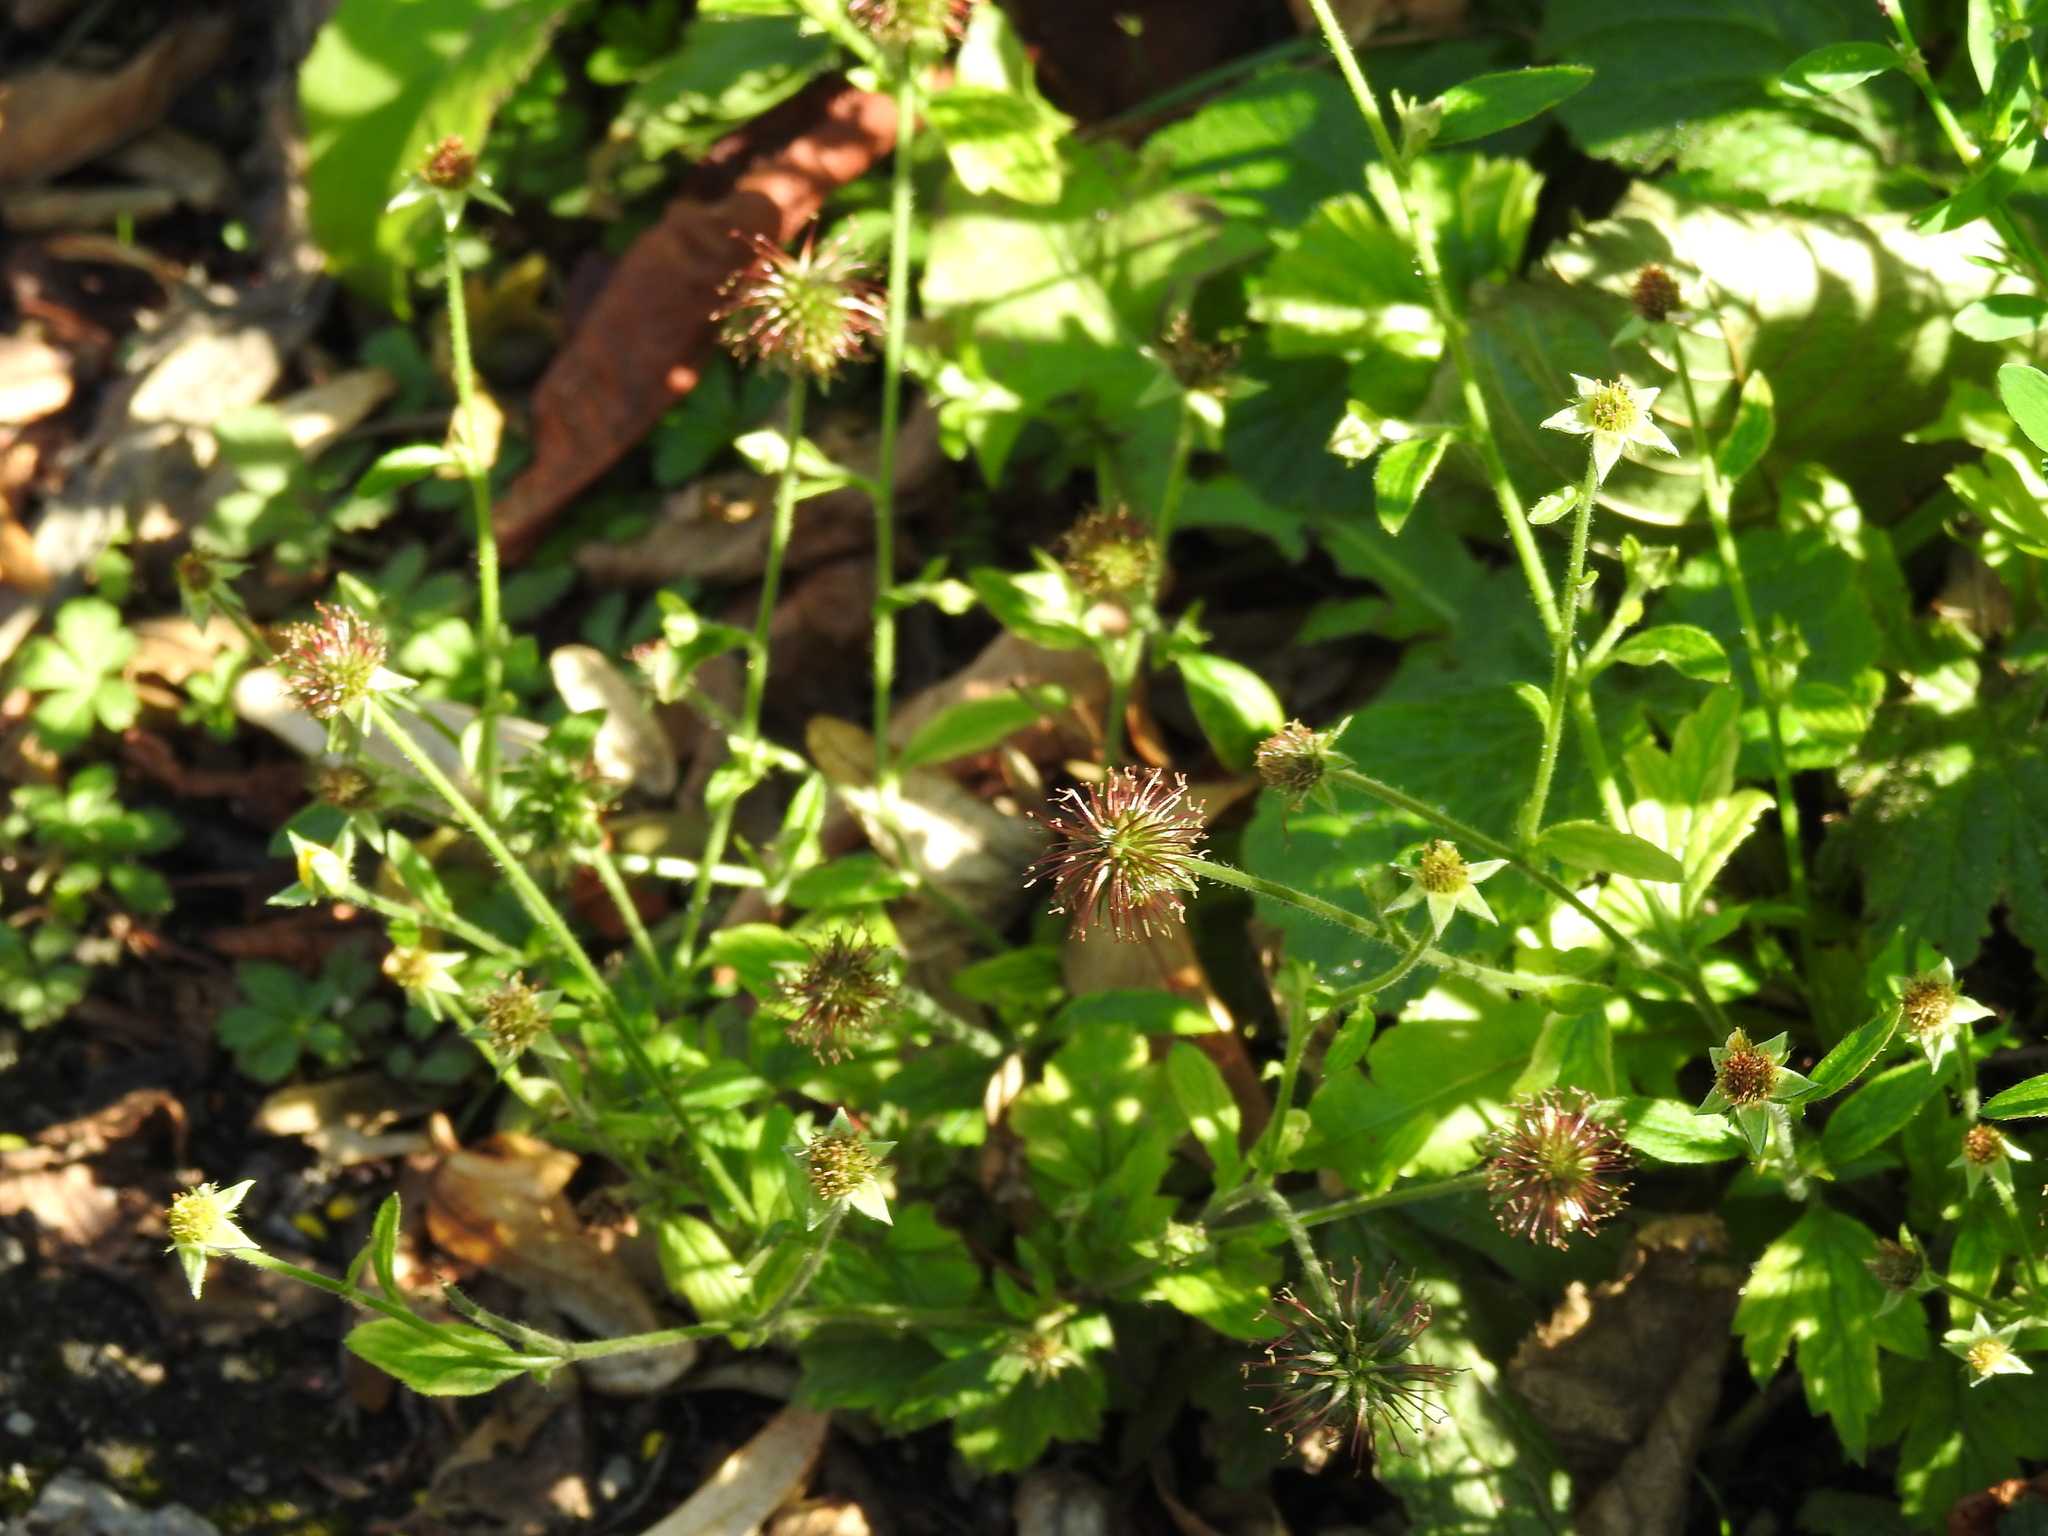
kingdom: Plantae
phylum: Tracheophyta
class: Magnoliopsida
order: Rosales
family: Rosaceae
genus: Geum
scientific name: Geum urbanum
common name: Wood avens
